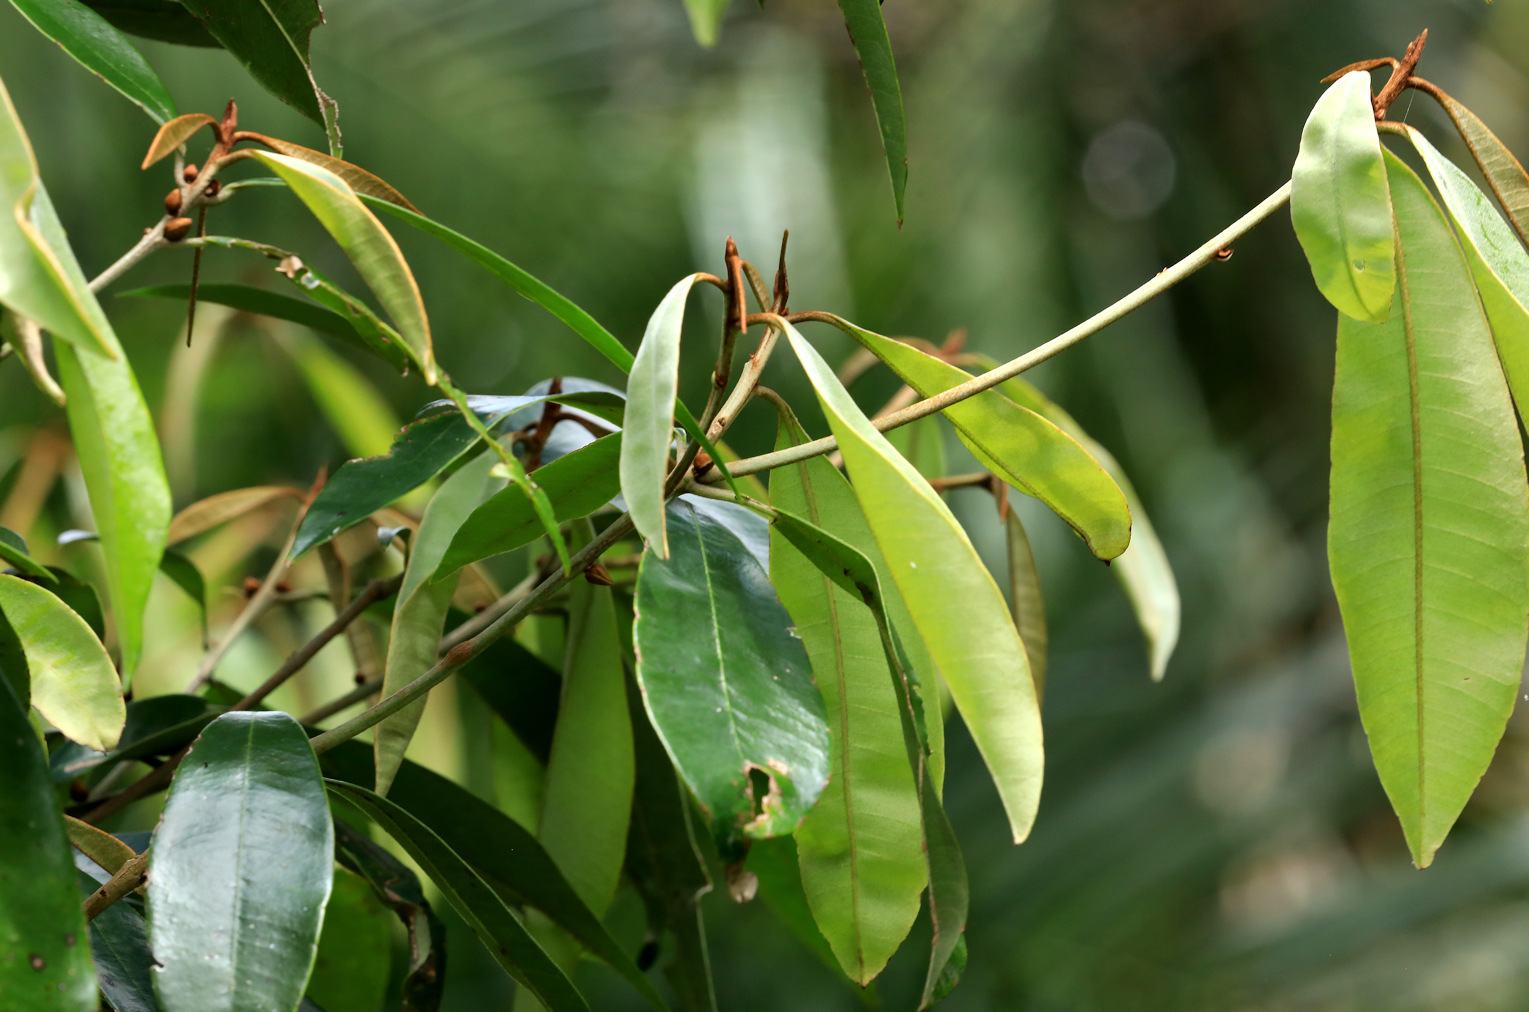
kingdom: Plantae
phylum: Tracheophyta
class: Magnoliopsida
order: Ericales
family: Sapotaceae
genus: Englerophytum
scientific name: Englerophytum natalense
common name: Silver-leaved milkplum
